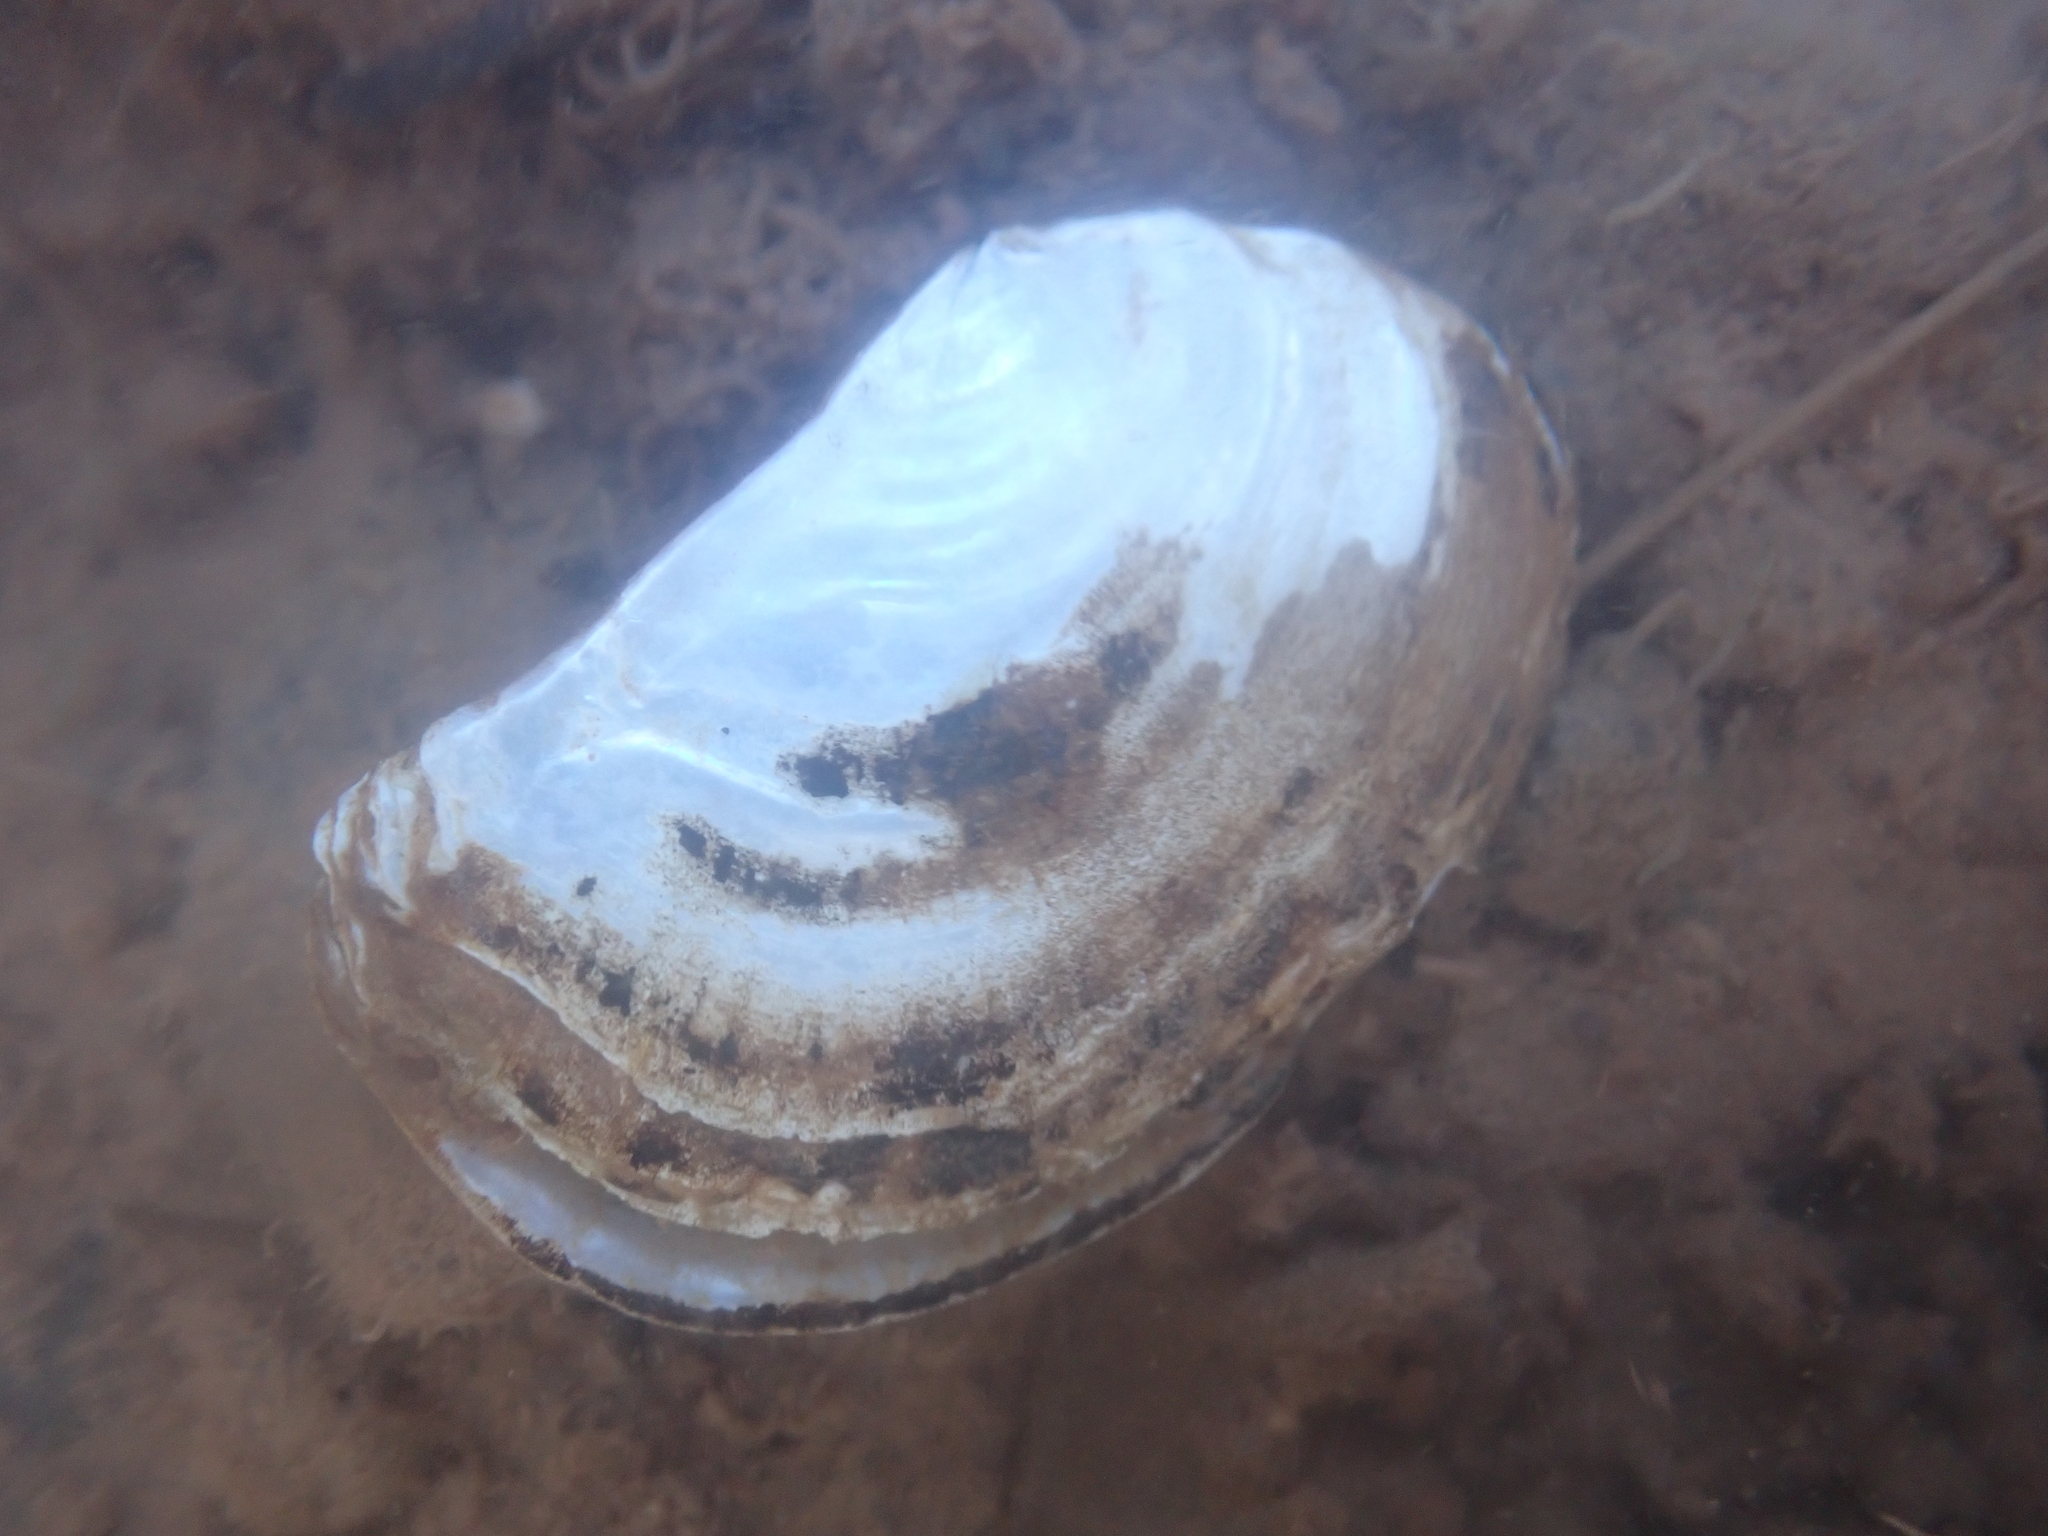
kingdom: Animalia
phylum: Mollusca
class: Bivalvia
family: Pandoridae
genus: Pandora
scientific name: Pandora gouldiana
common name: Rounded pandora
